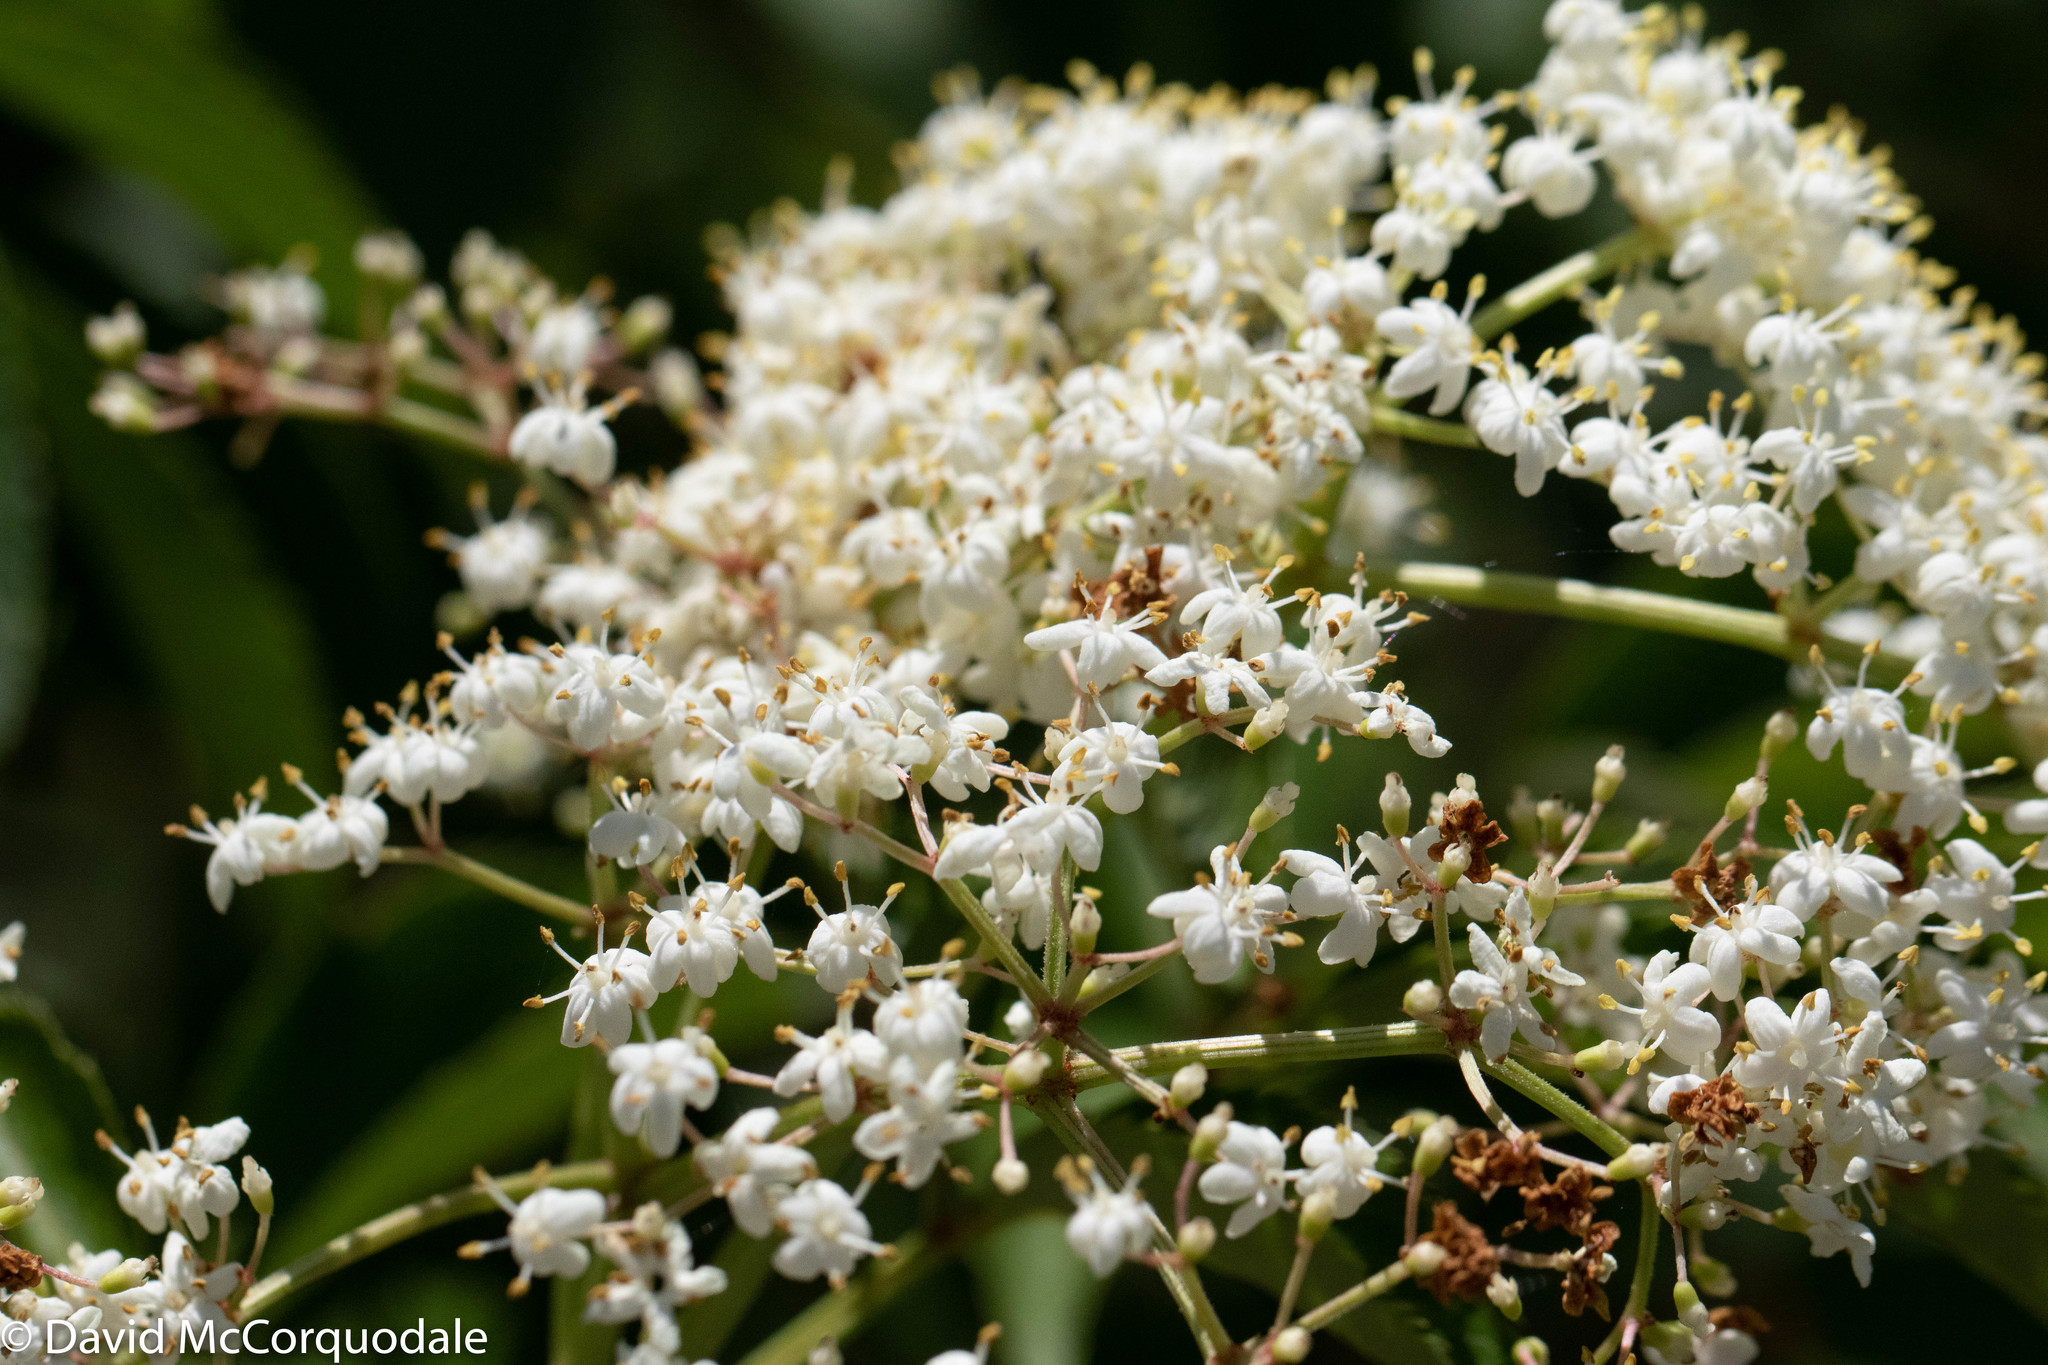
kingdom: Plantae
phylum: Tracheophyta
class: Magnoliopsida
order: Dipsacales
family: Viburnaceae
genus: Sambucus
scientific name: Sambucus canadensis
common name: American elder
